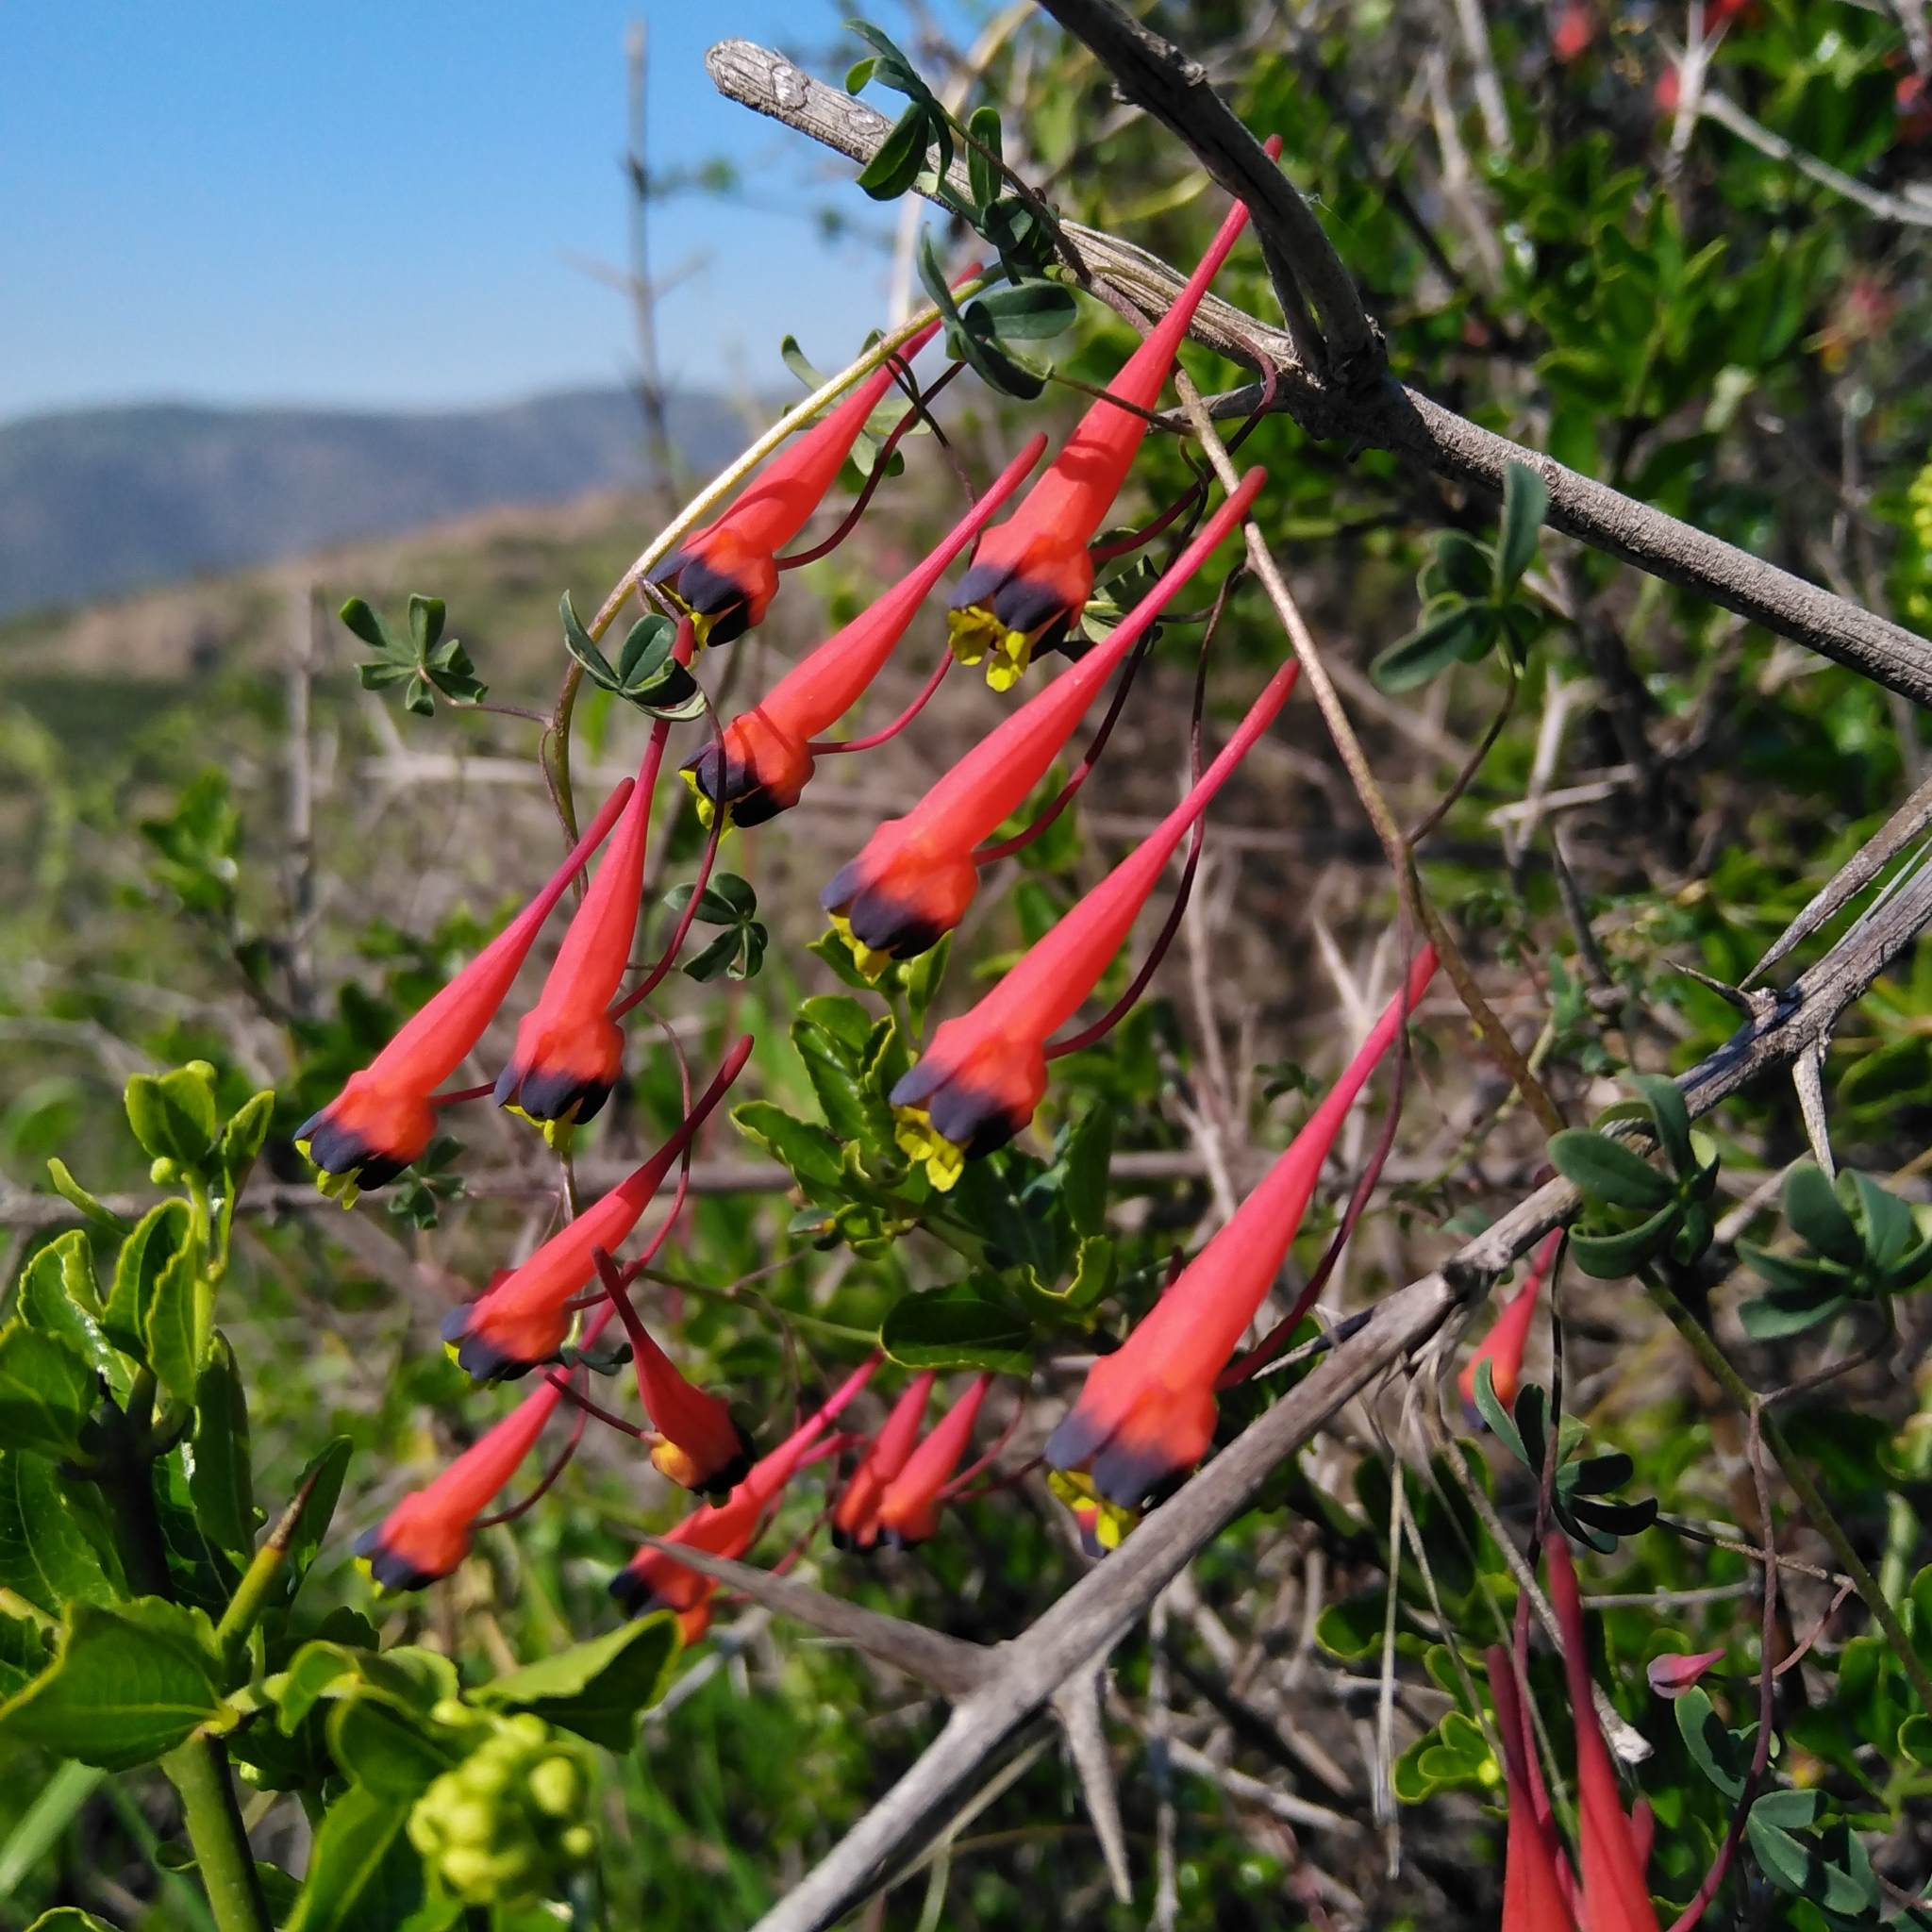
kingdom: Plantae
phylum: Tracheophyta
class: Magnoliopsida
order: Brassicales
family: Tropaeolaceae
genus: Tropaeolum
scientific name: Tropaeolum tricolor
